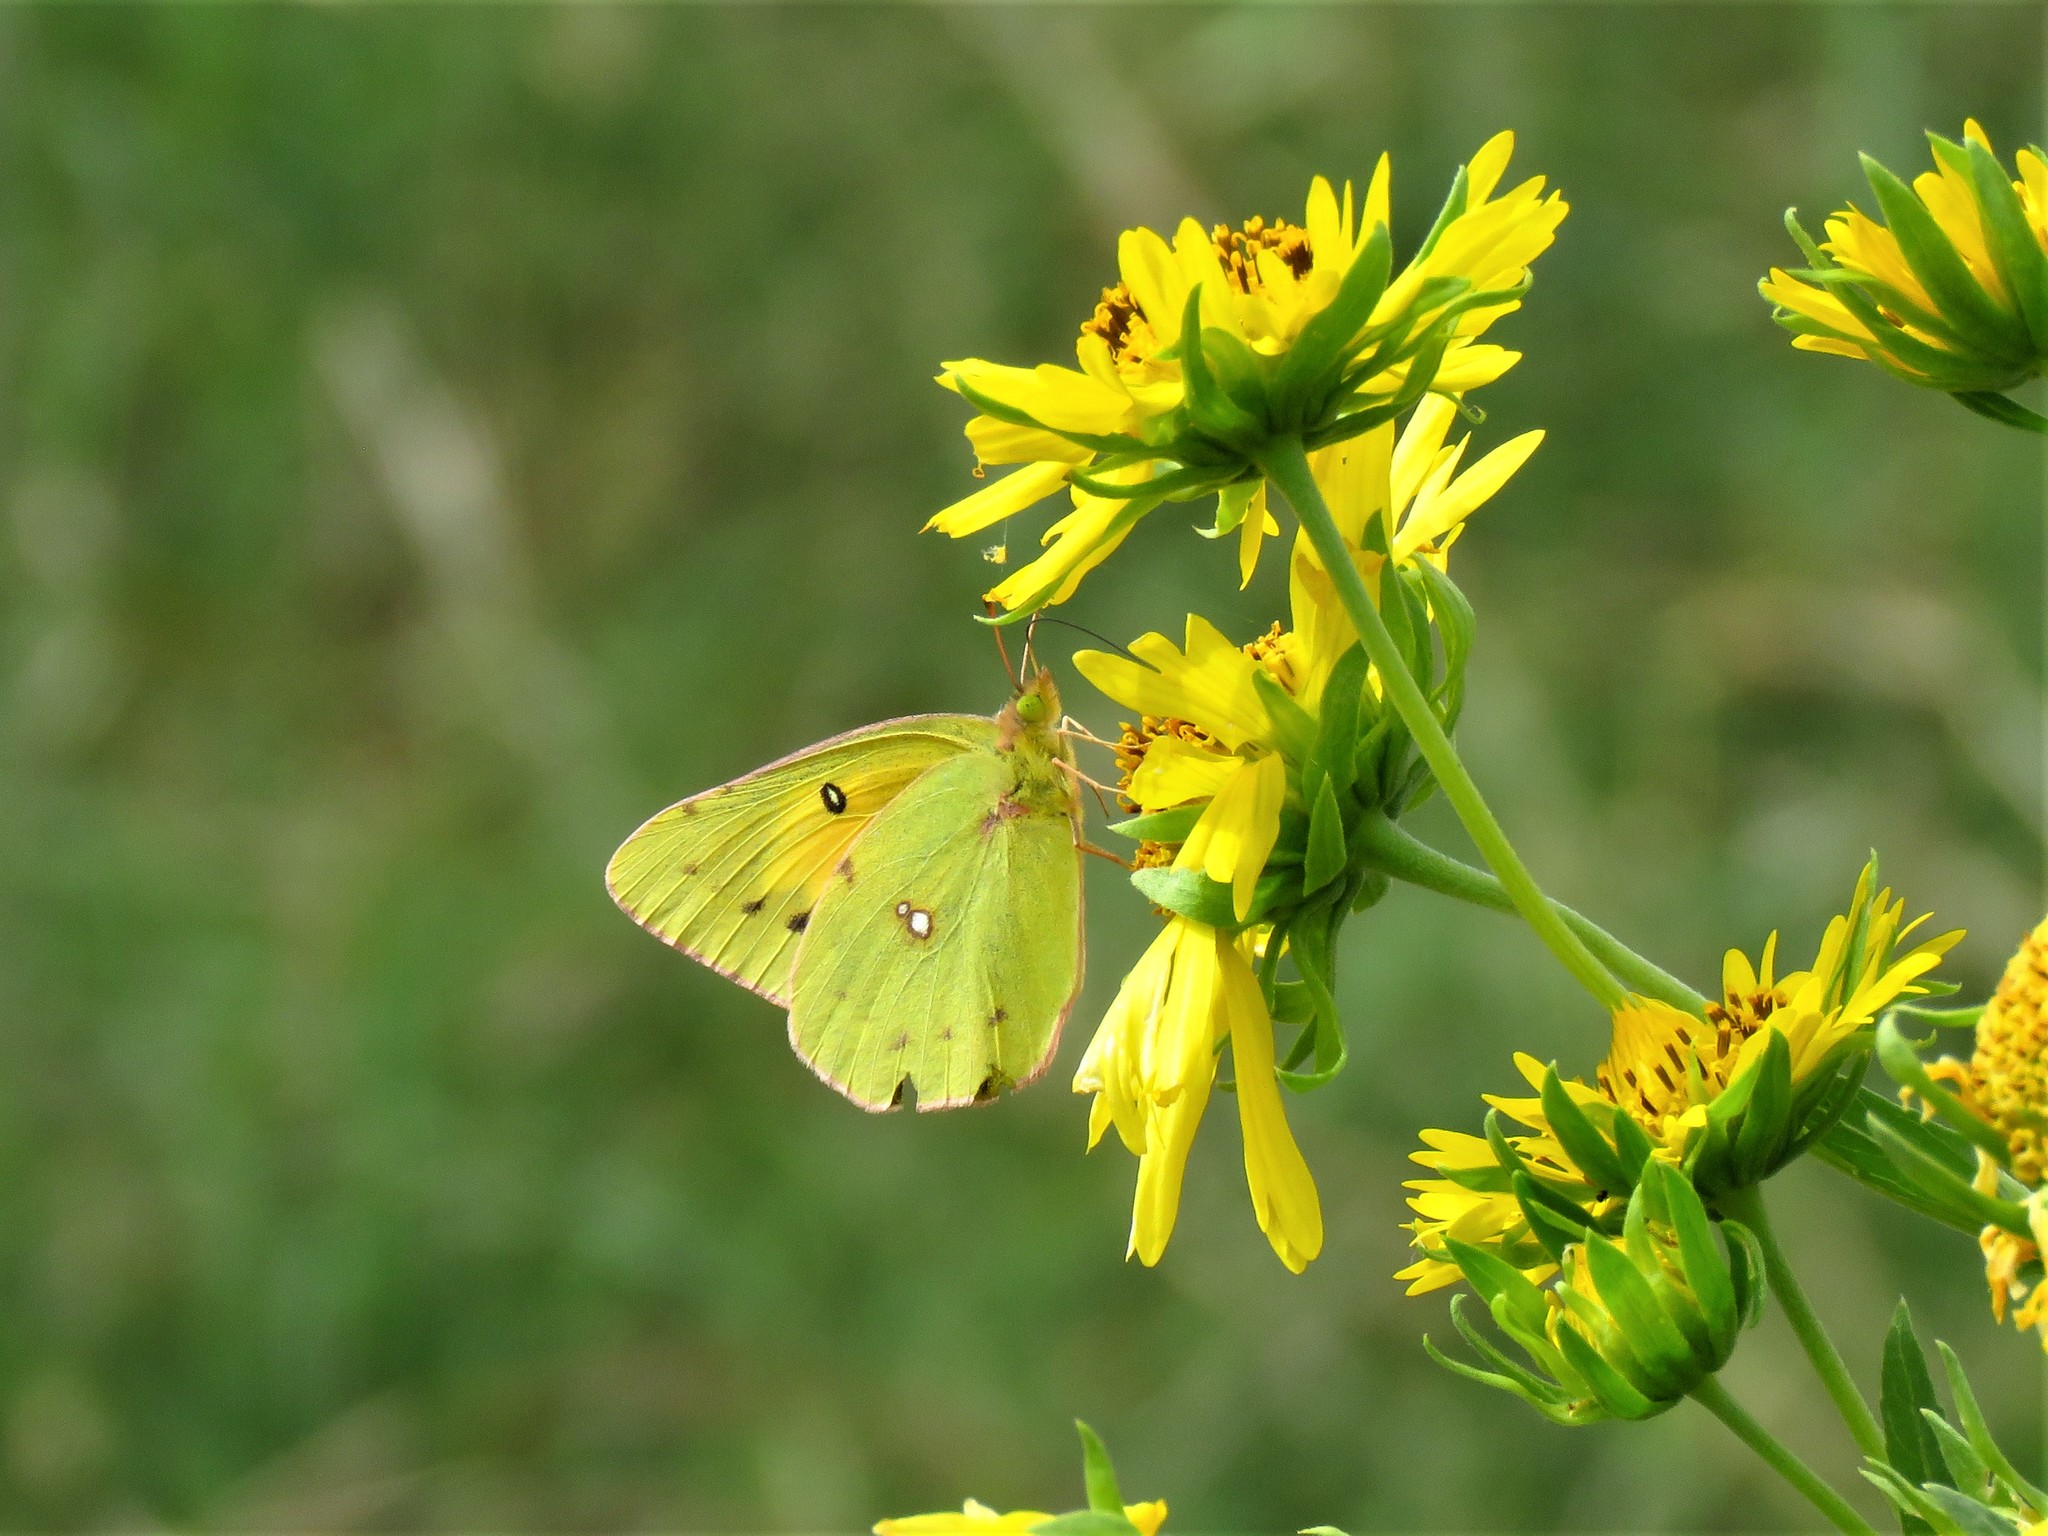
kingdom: Animalia
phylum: Arthropoda
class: Insecta
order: Lepidoptera
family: Pieridae
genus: Colias
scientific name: Colias eurytheme
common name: Alfalfa butterfly
